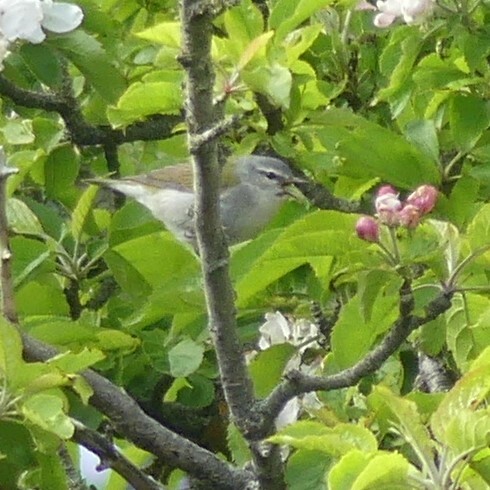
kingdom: Animalia
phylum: Chordata
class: Aves
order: Passeriformes
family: Parulidae
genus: Leiothlypis
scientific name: Leiothlypis peregrina
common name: Tennessee warbler
